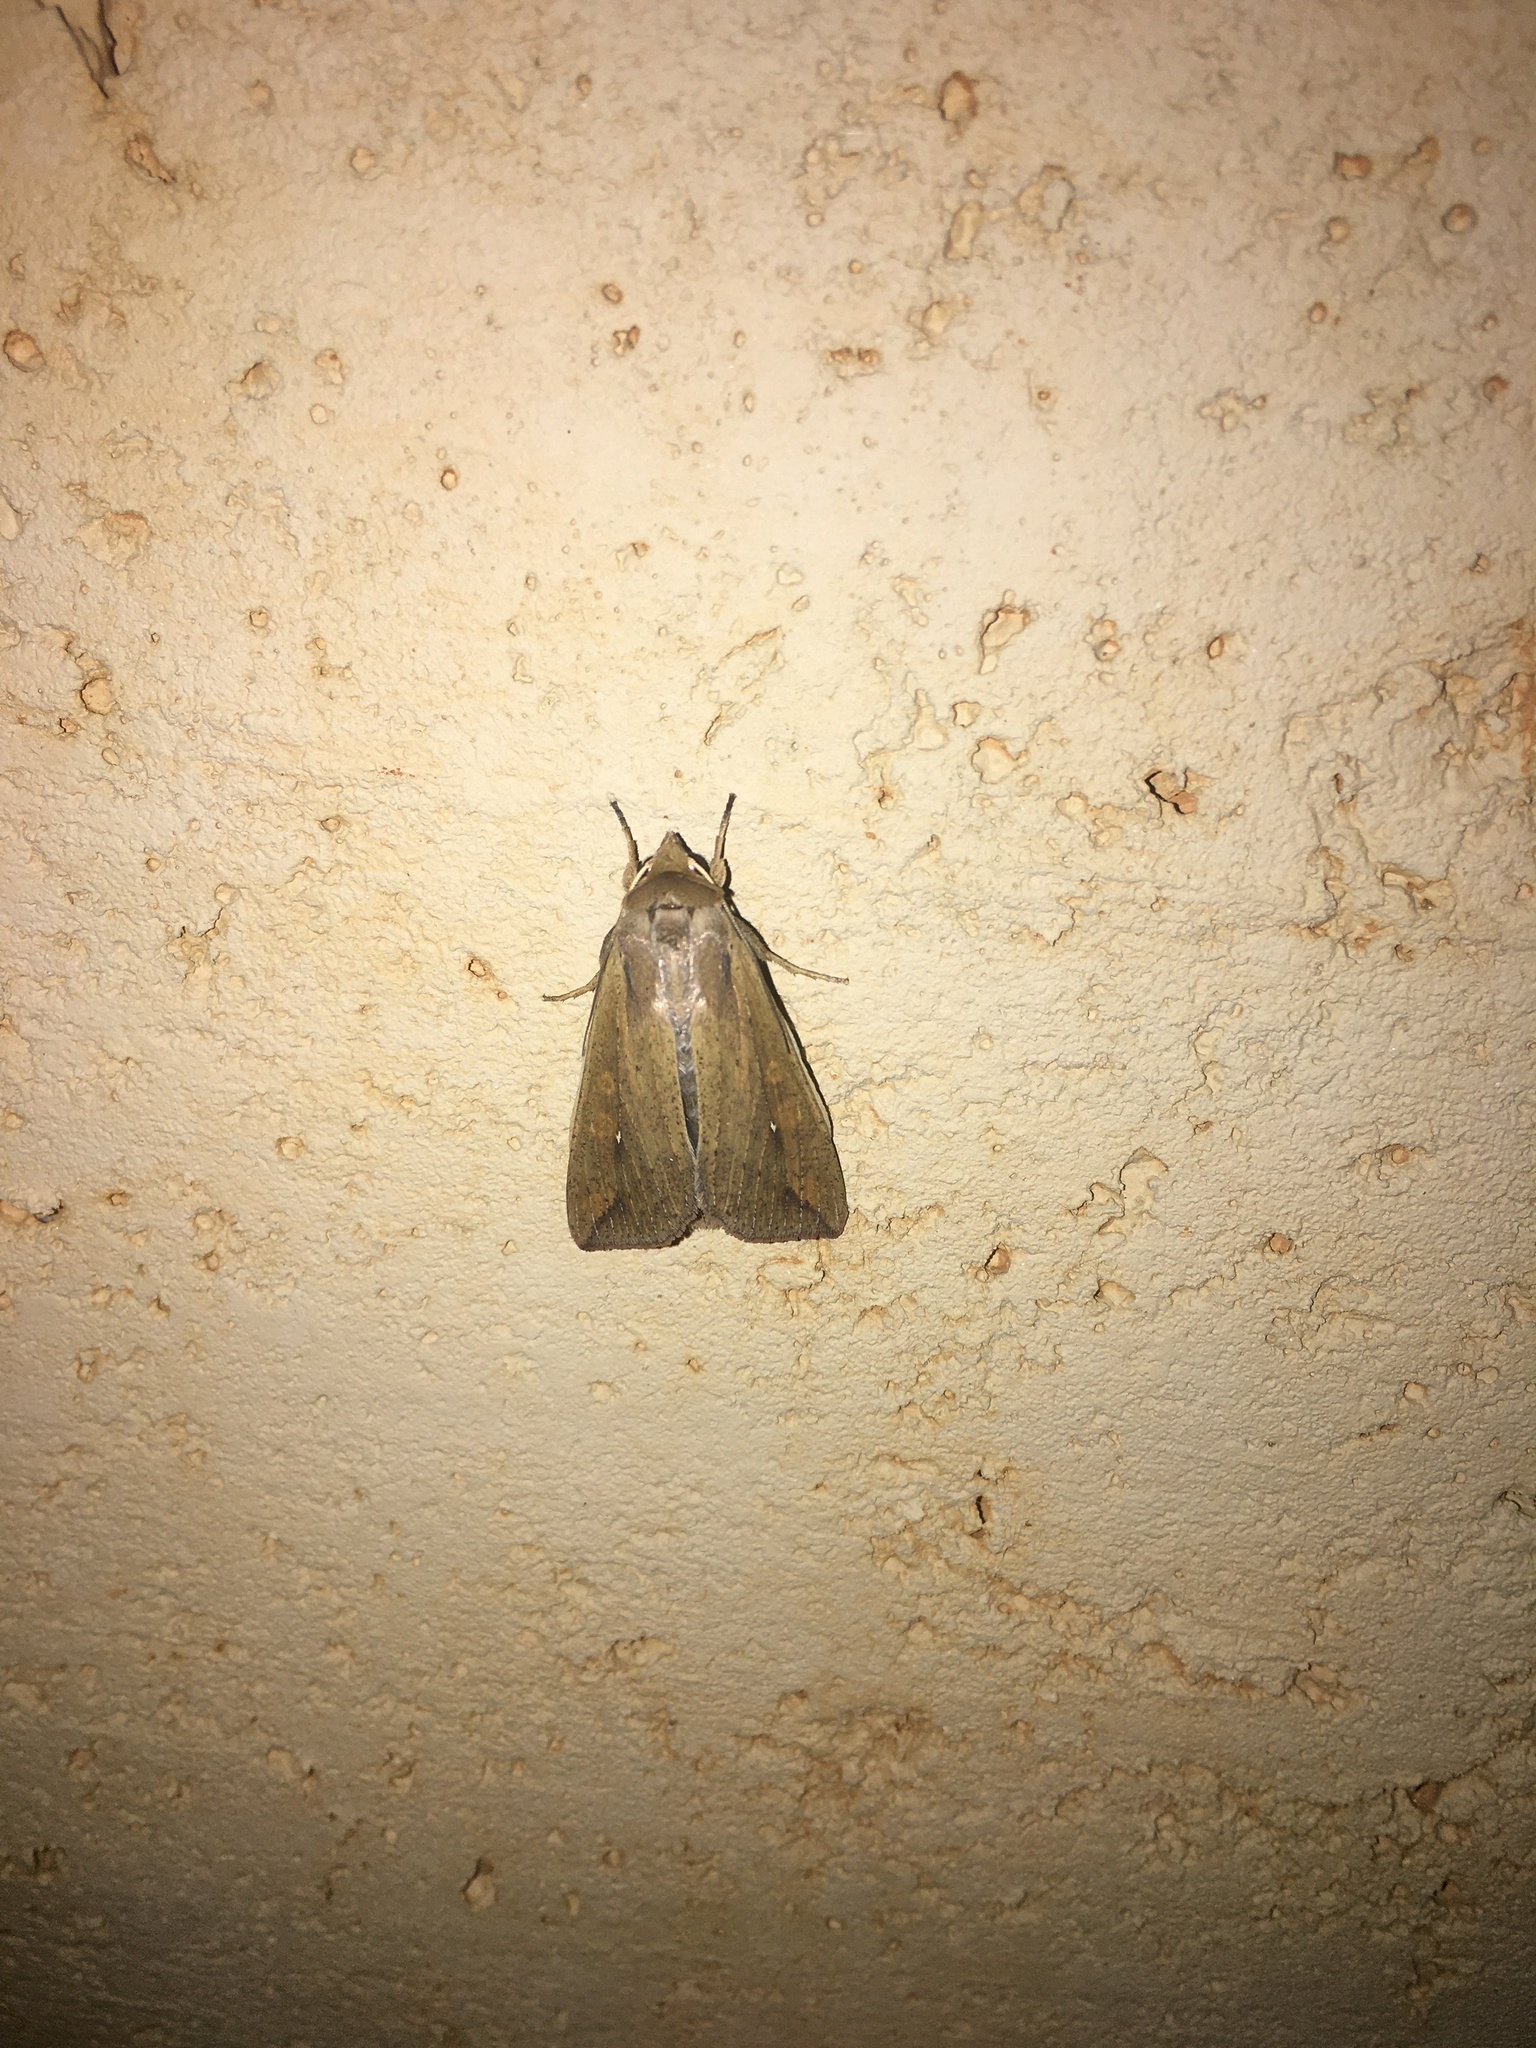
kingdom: Animalia
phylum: Arthropoda
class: Insecta
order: Lepidoptera
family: Noctuidae
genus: Mythimna
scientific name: Mythimna unipuncta
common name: White-speck
